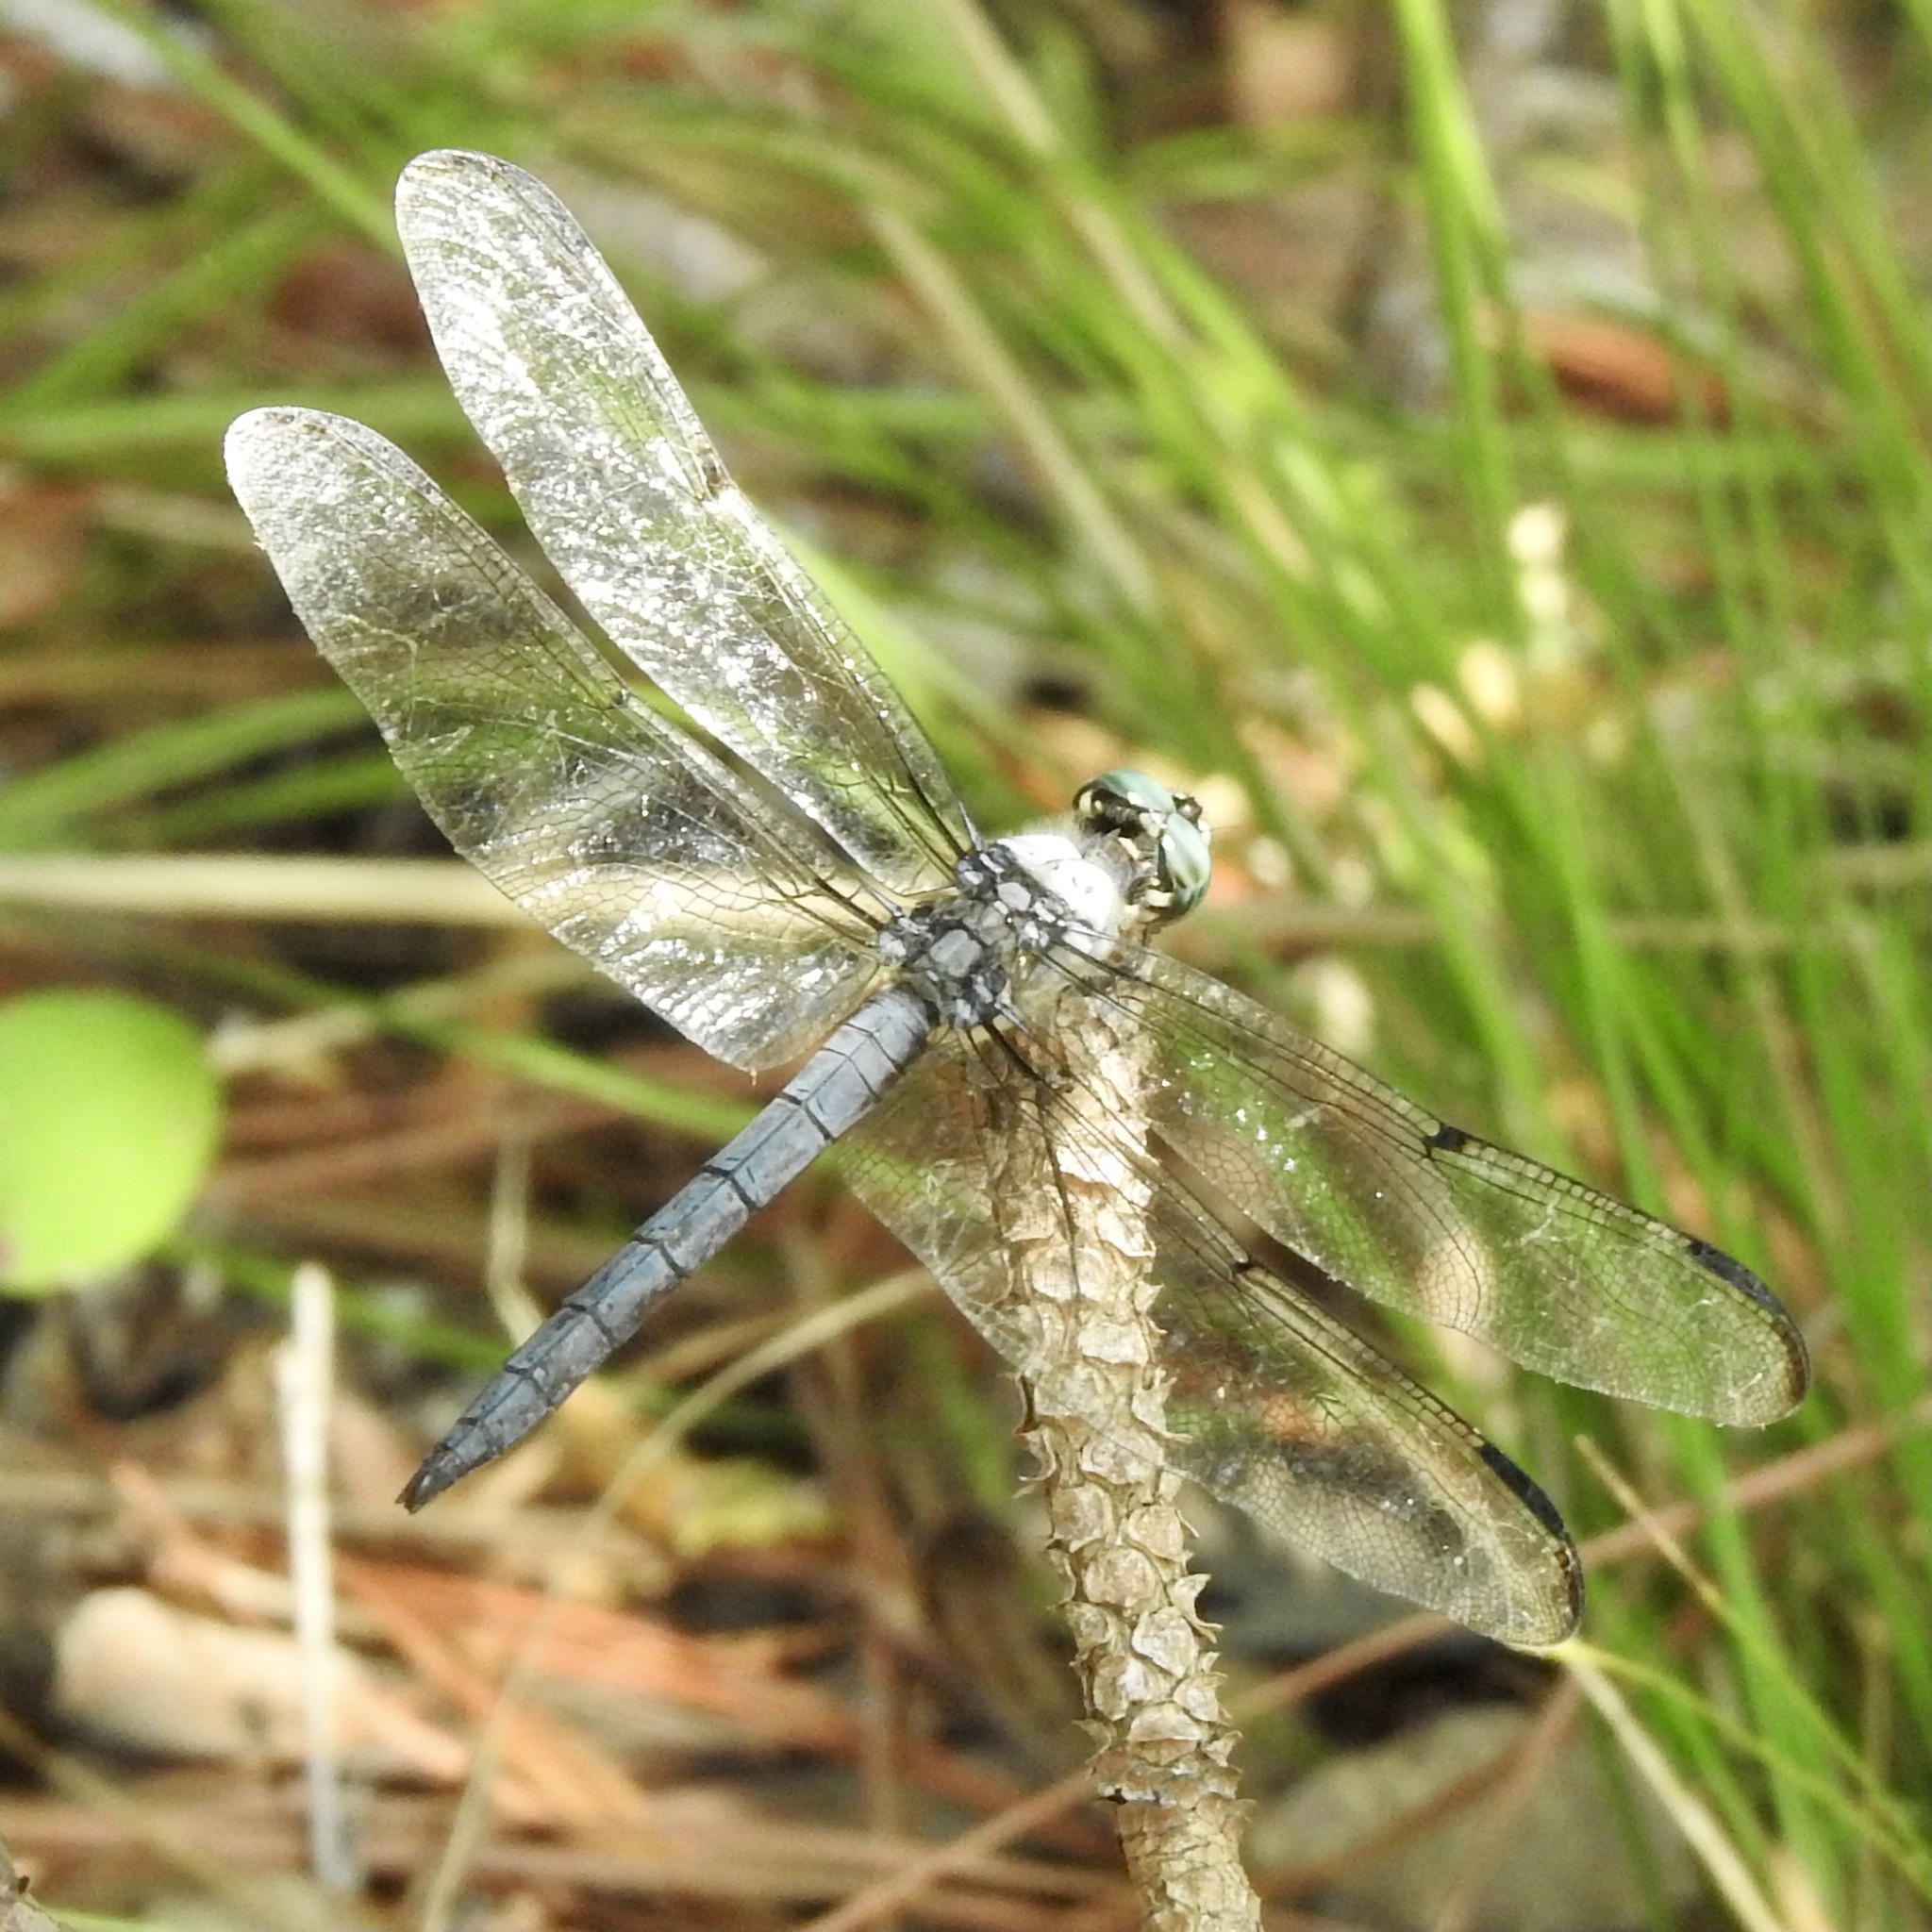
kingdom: Animalia
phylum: Arthropoda
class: Insecta
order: Odonata
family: Libellulidae
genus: Libellula
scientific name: Libellula vibrans
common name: Great blue skimmer
